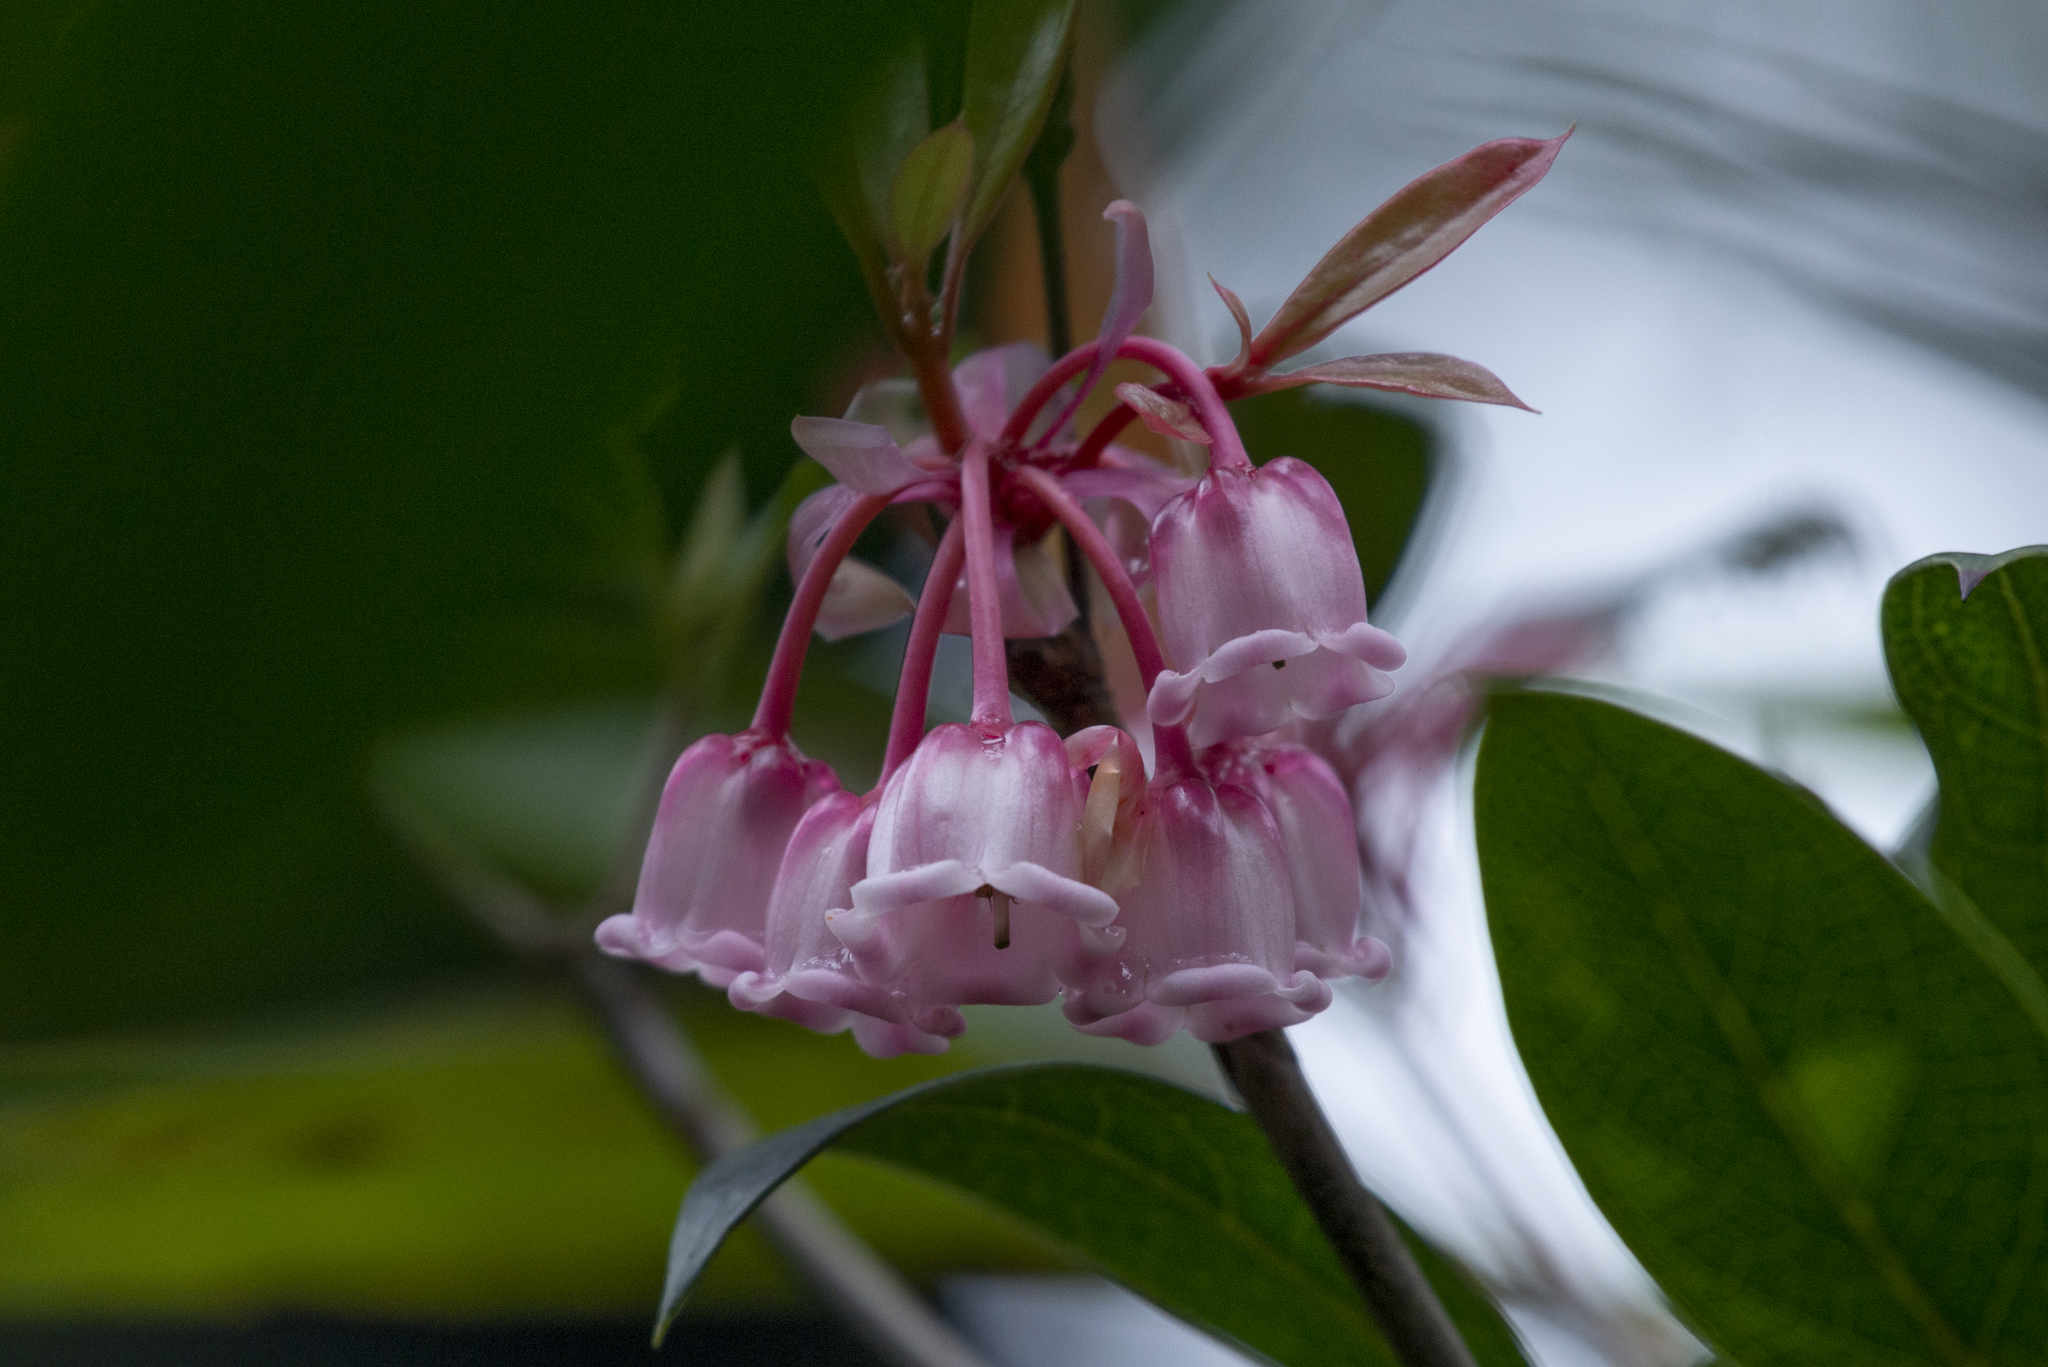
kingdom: Plantae
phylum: Tracheophyta
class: Magnoliopsida
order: Ericales
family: Ericaceae
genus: Enkianthus
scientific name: Enkianthus quinqueflorus
